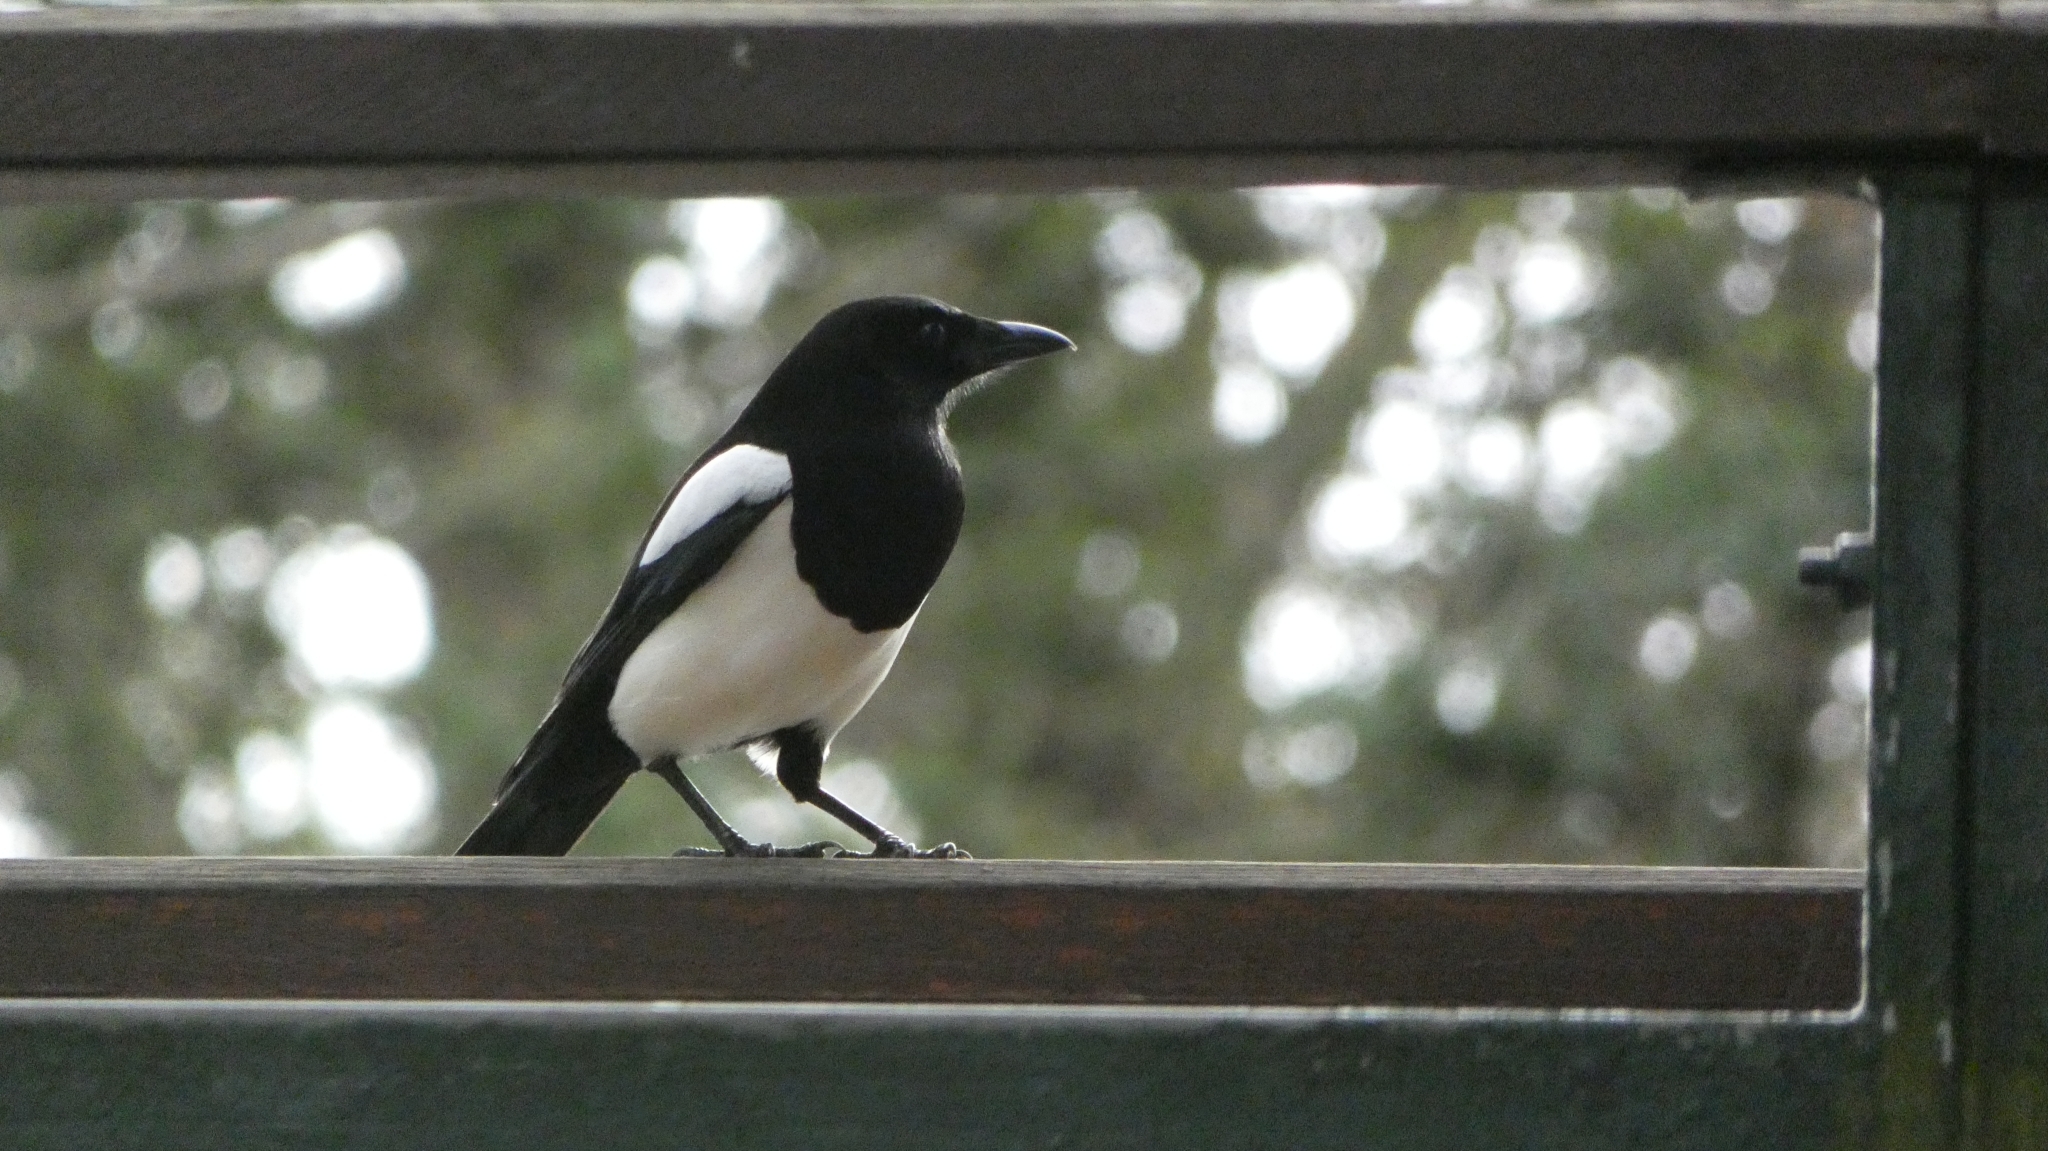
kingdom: Animalia
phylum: Chordata
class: Aves
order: Passeriformes
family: Corvidae
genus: Pica
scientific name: Pica pica
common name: Eurasian magpie
